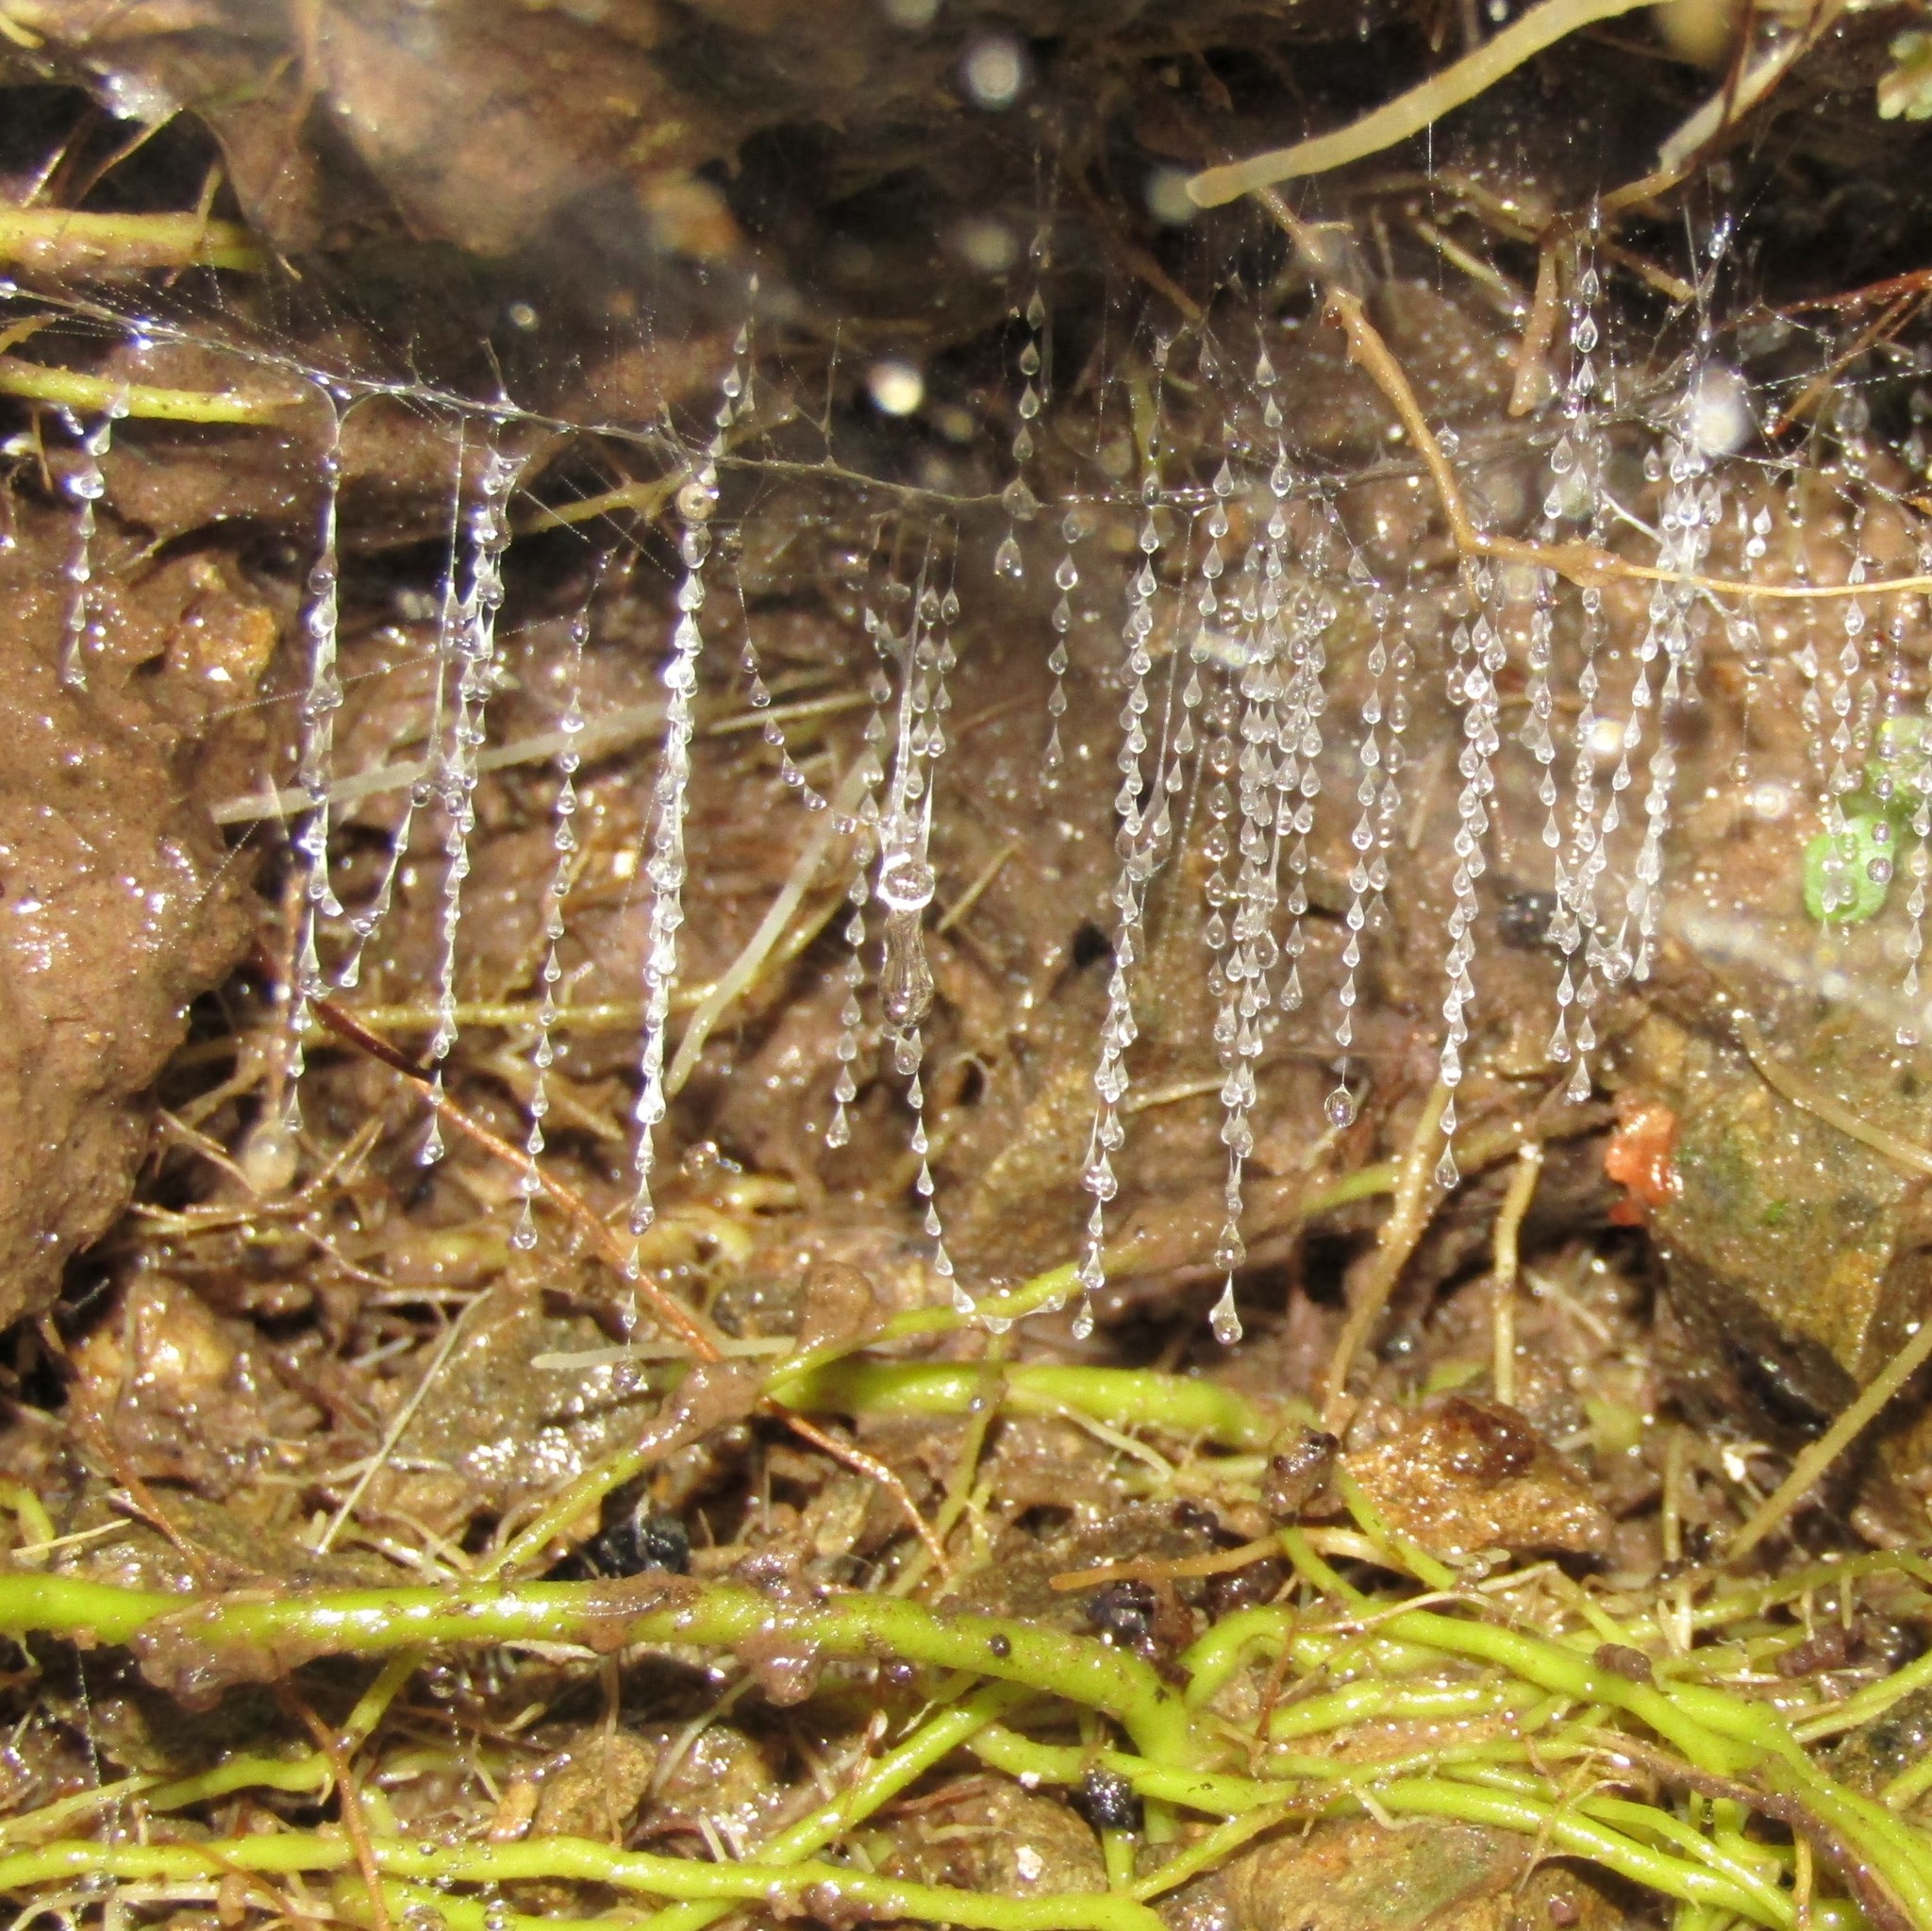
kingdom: Animalia
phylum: Arthropoda
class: Insecta
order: Diptera
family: Keroplatidae
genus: Arachnocampa
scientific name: Arachnocampa luminosa
